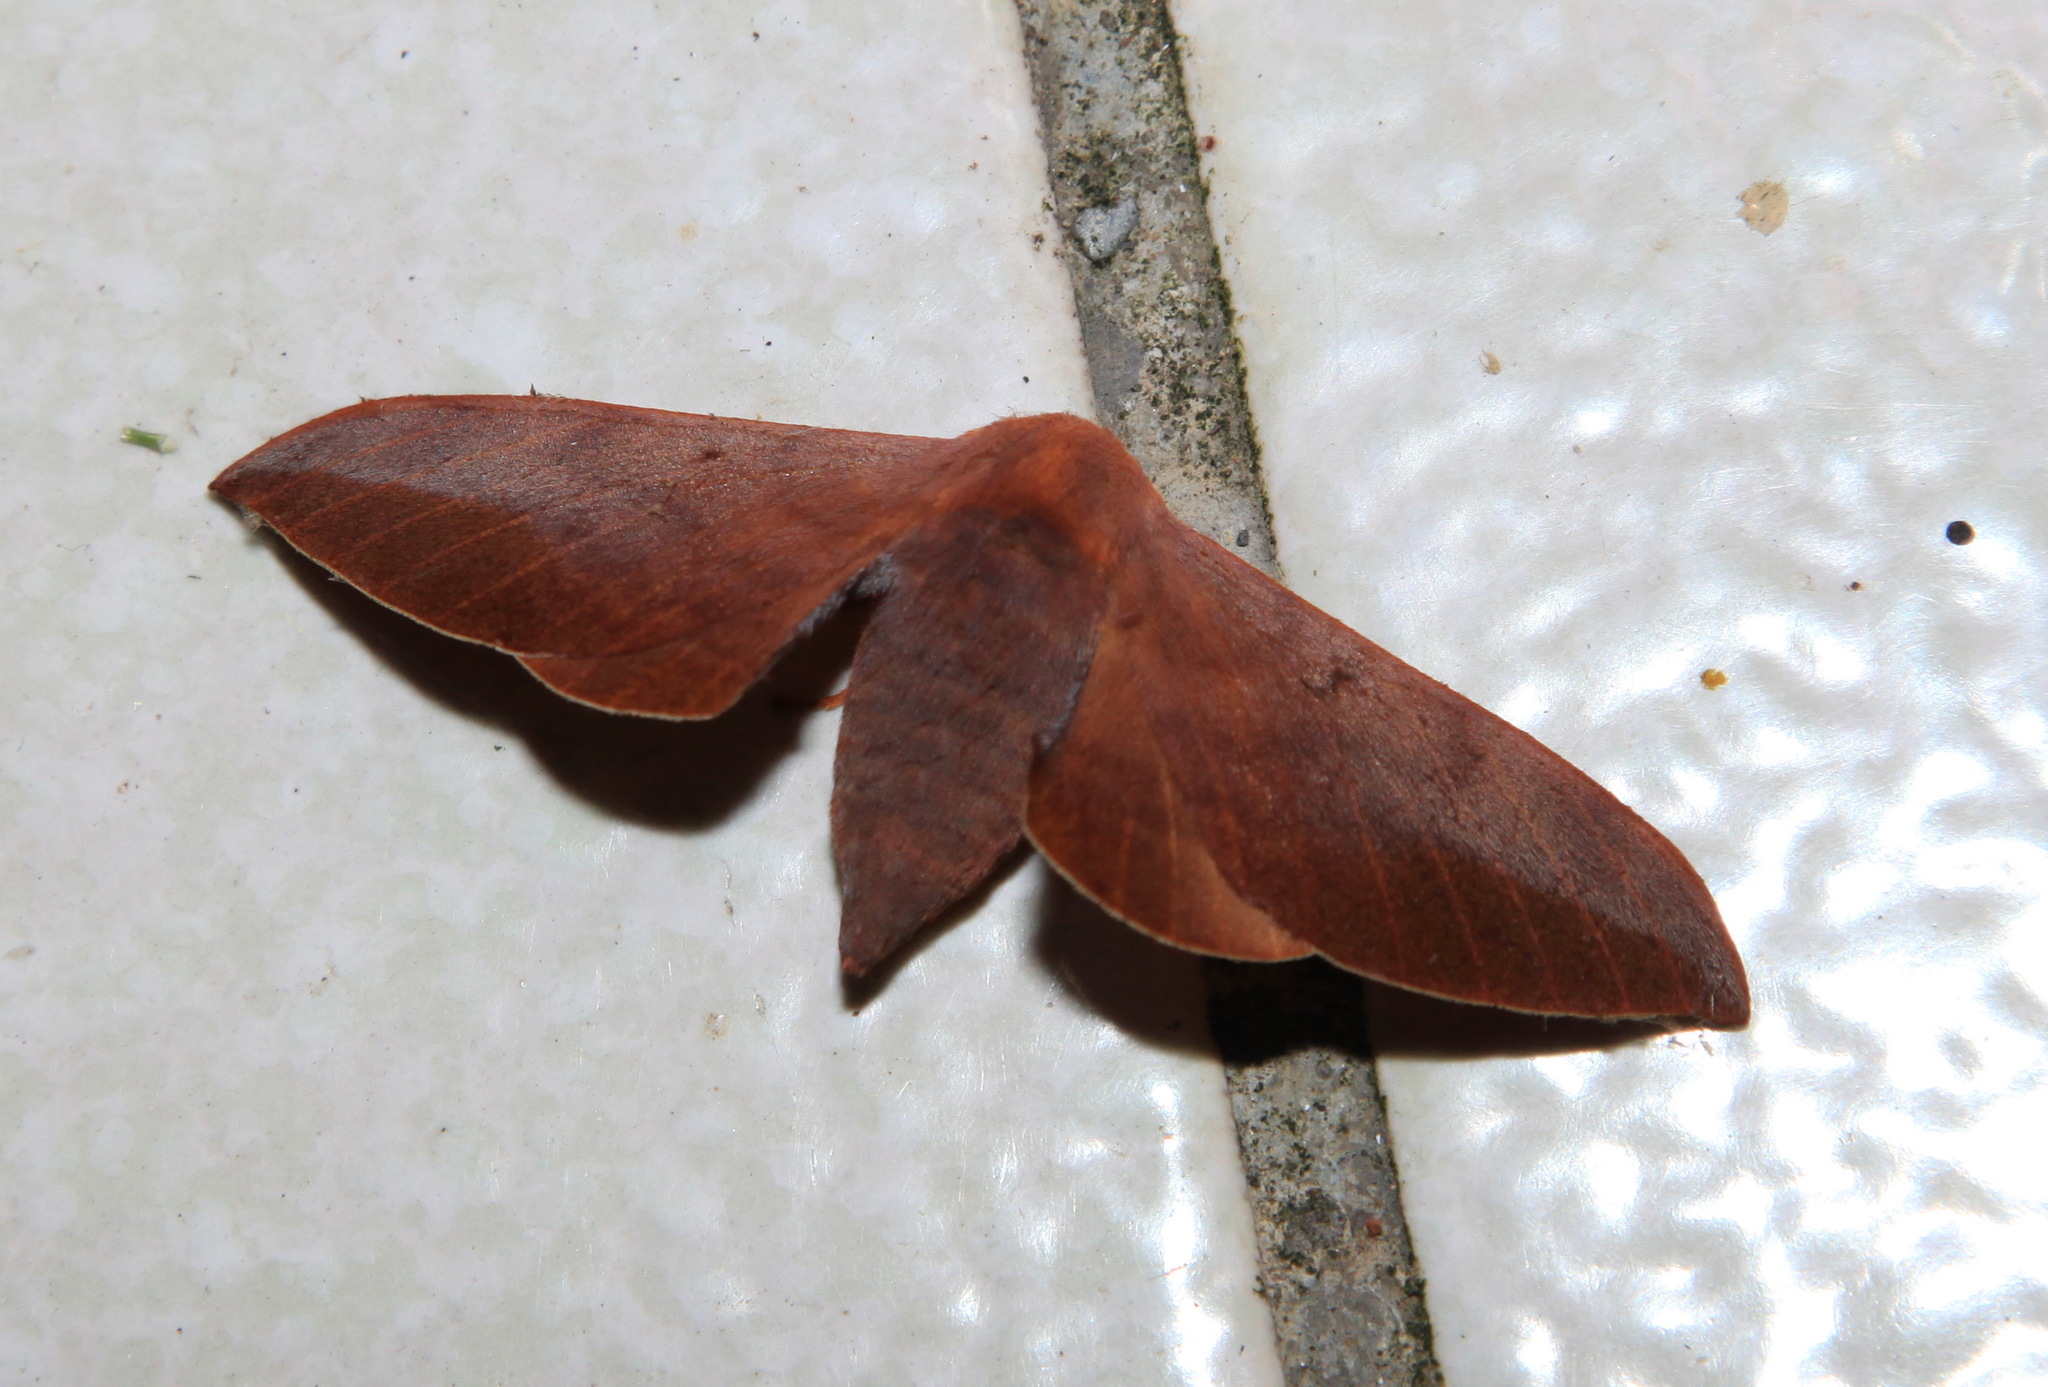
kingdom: Animalia
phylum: Arthropoda
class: Insecta
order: Lepidoptera
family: Endromidae
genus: Comparmustilia
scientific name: Comparmustilia gerontica
